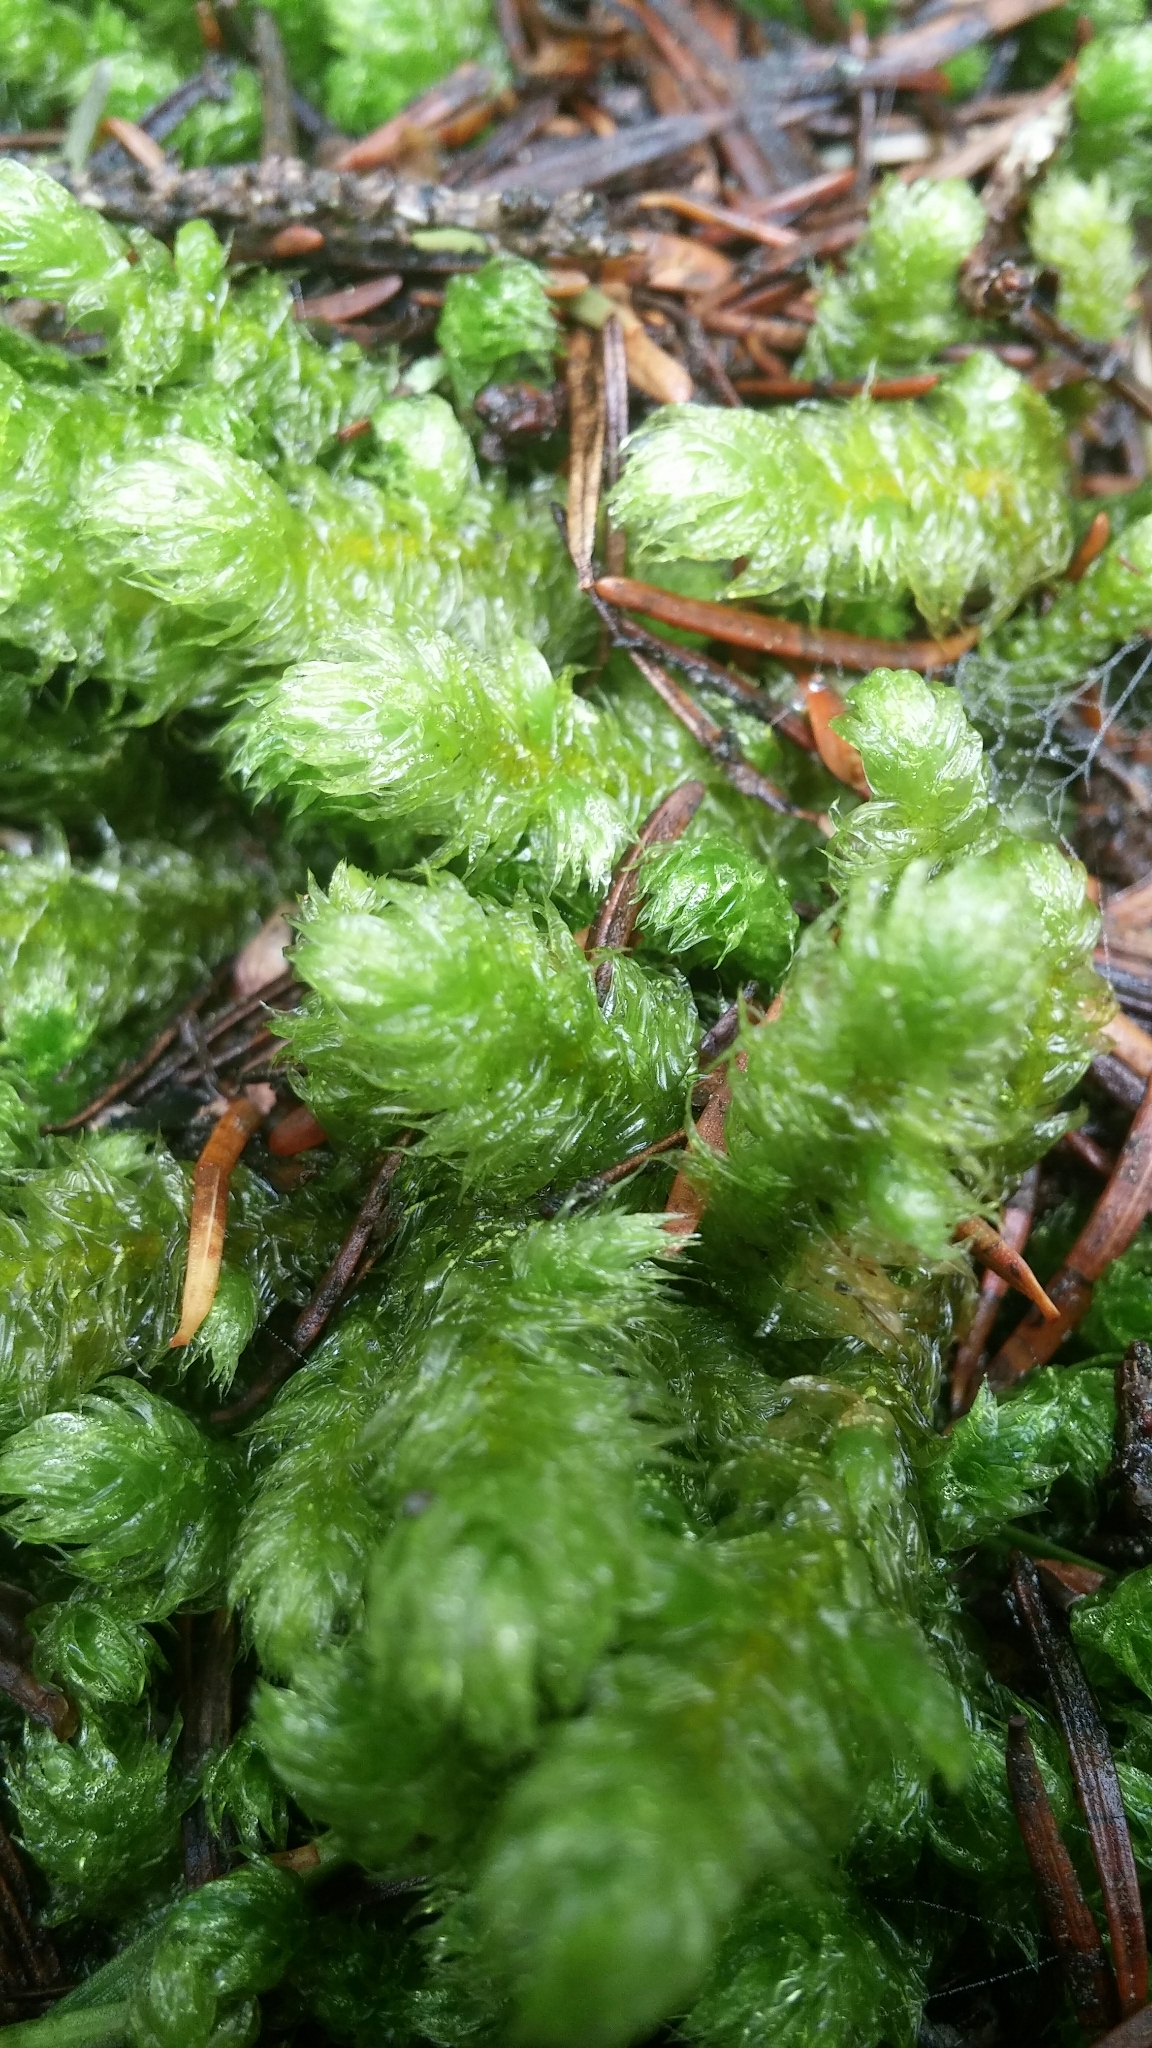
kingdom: Plantae
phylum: Bryophyta
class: Bryopsida
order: Hypnales
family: Hylocomiaceae
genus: Rhytidiopsis
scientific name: Rhytidiopsis robusta
